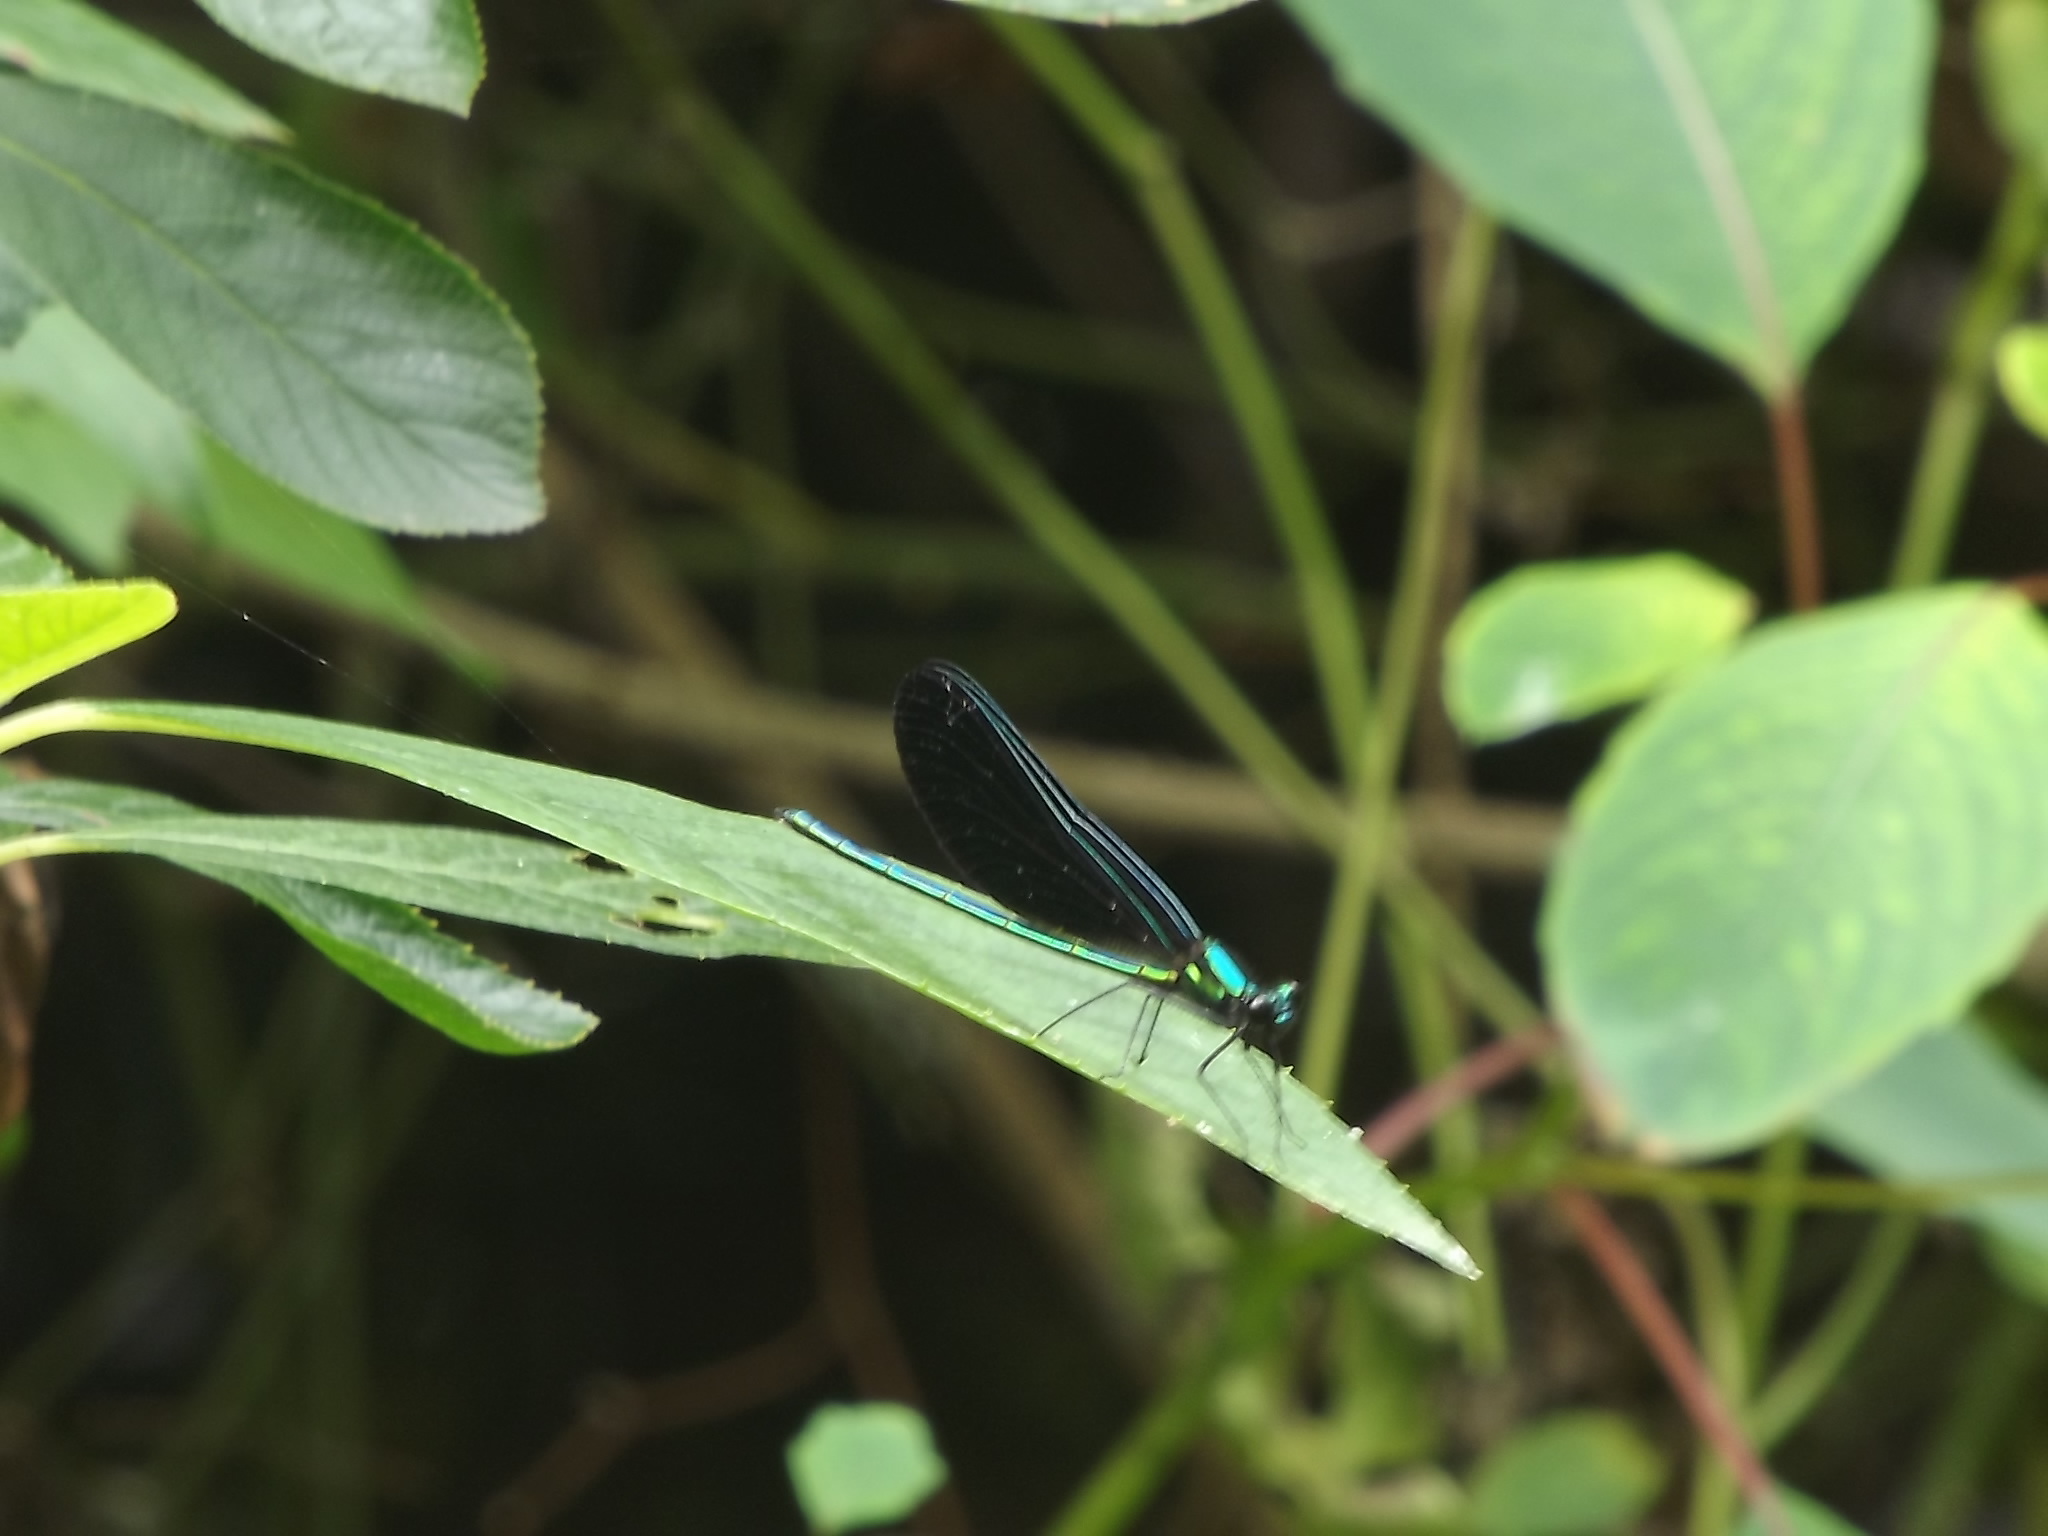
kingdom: Animalia
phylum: Arthropoda
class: Insecta
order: Odonata
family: Calopterygidae
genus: Calopteryx
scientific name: Calopteryx maculata
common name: Ebony jewelwing
